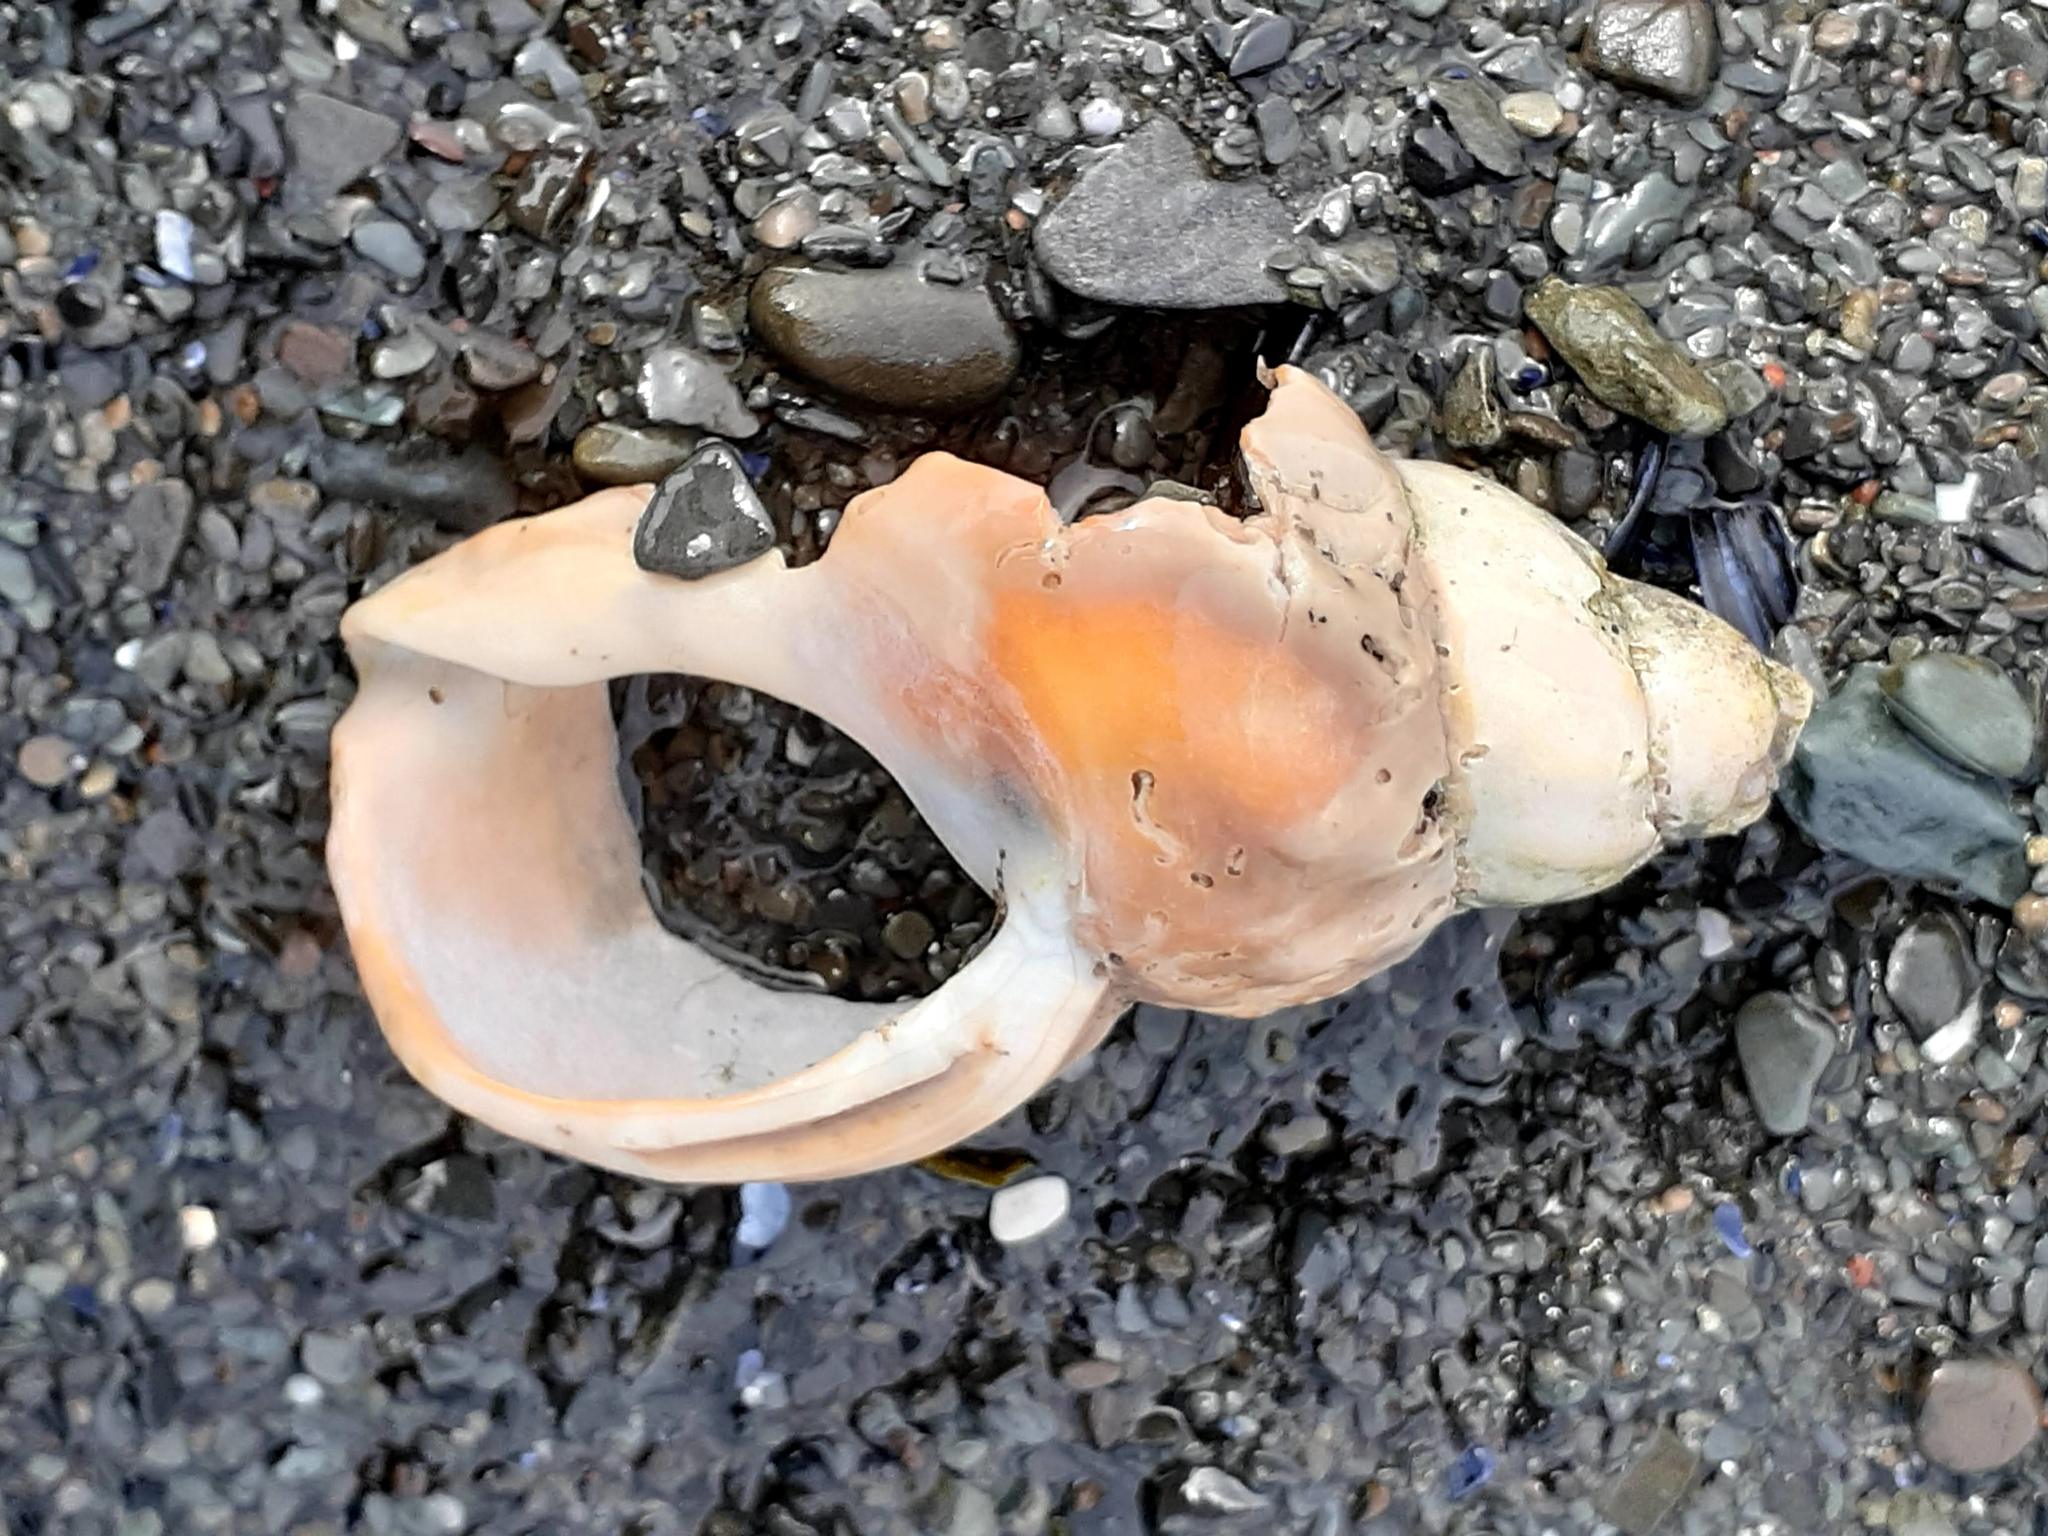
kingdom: Animalia
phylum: Mollusca
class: Gastropoda
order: Neogastropoda
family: Buccinidae
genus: Buccinum
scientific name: Buccinum undatum
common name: Common whelk
